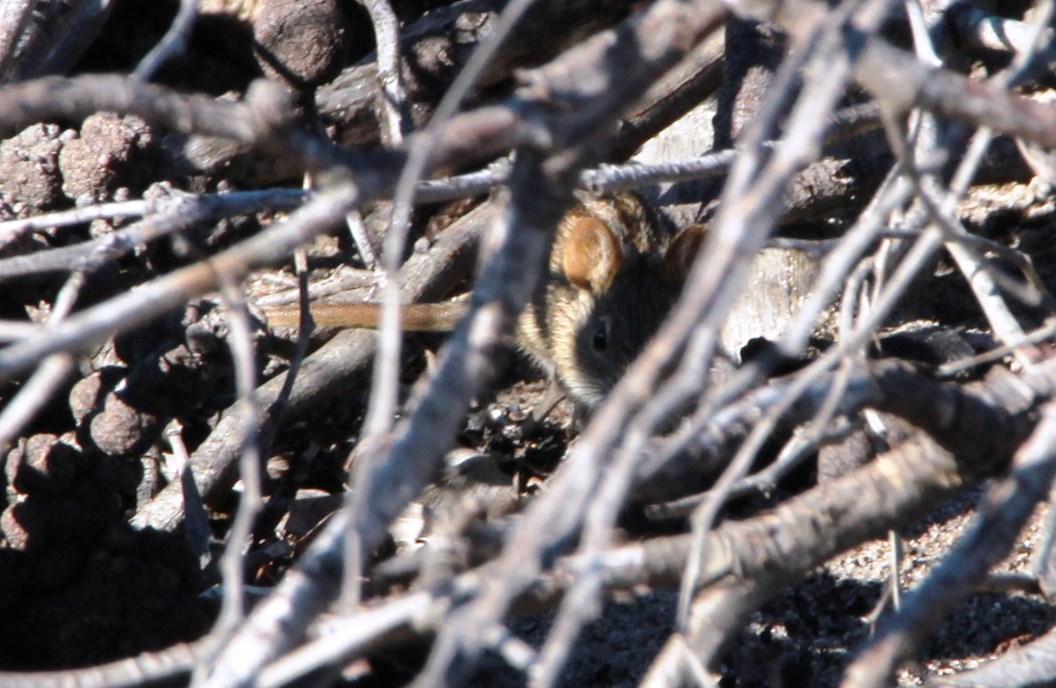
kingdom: Animalia
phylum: Chordata
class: Mammalia
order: Rodentia
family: Muridae
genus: Rhabdomys
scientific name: Rhabdomys pumilio
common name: Xeric four-striped grass rat
